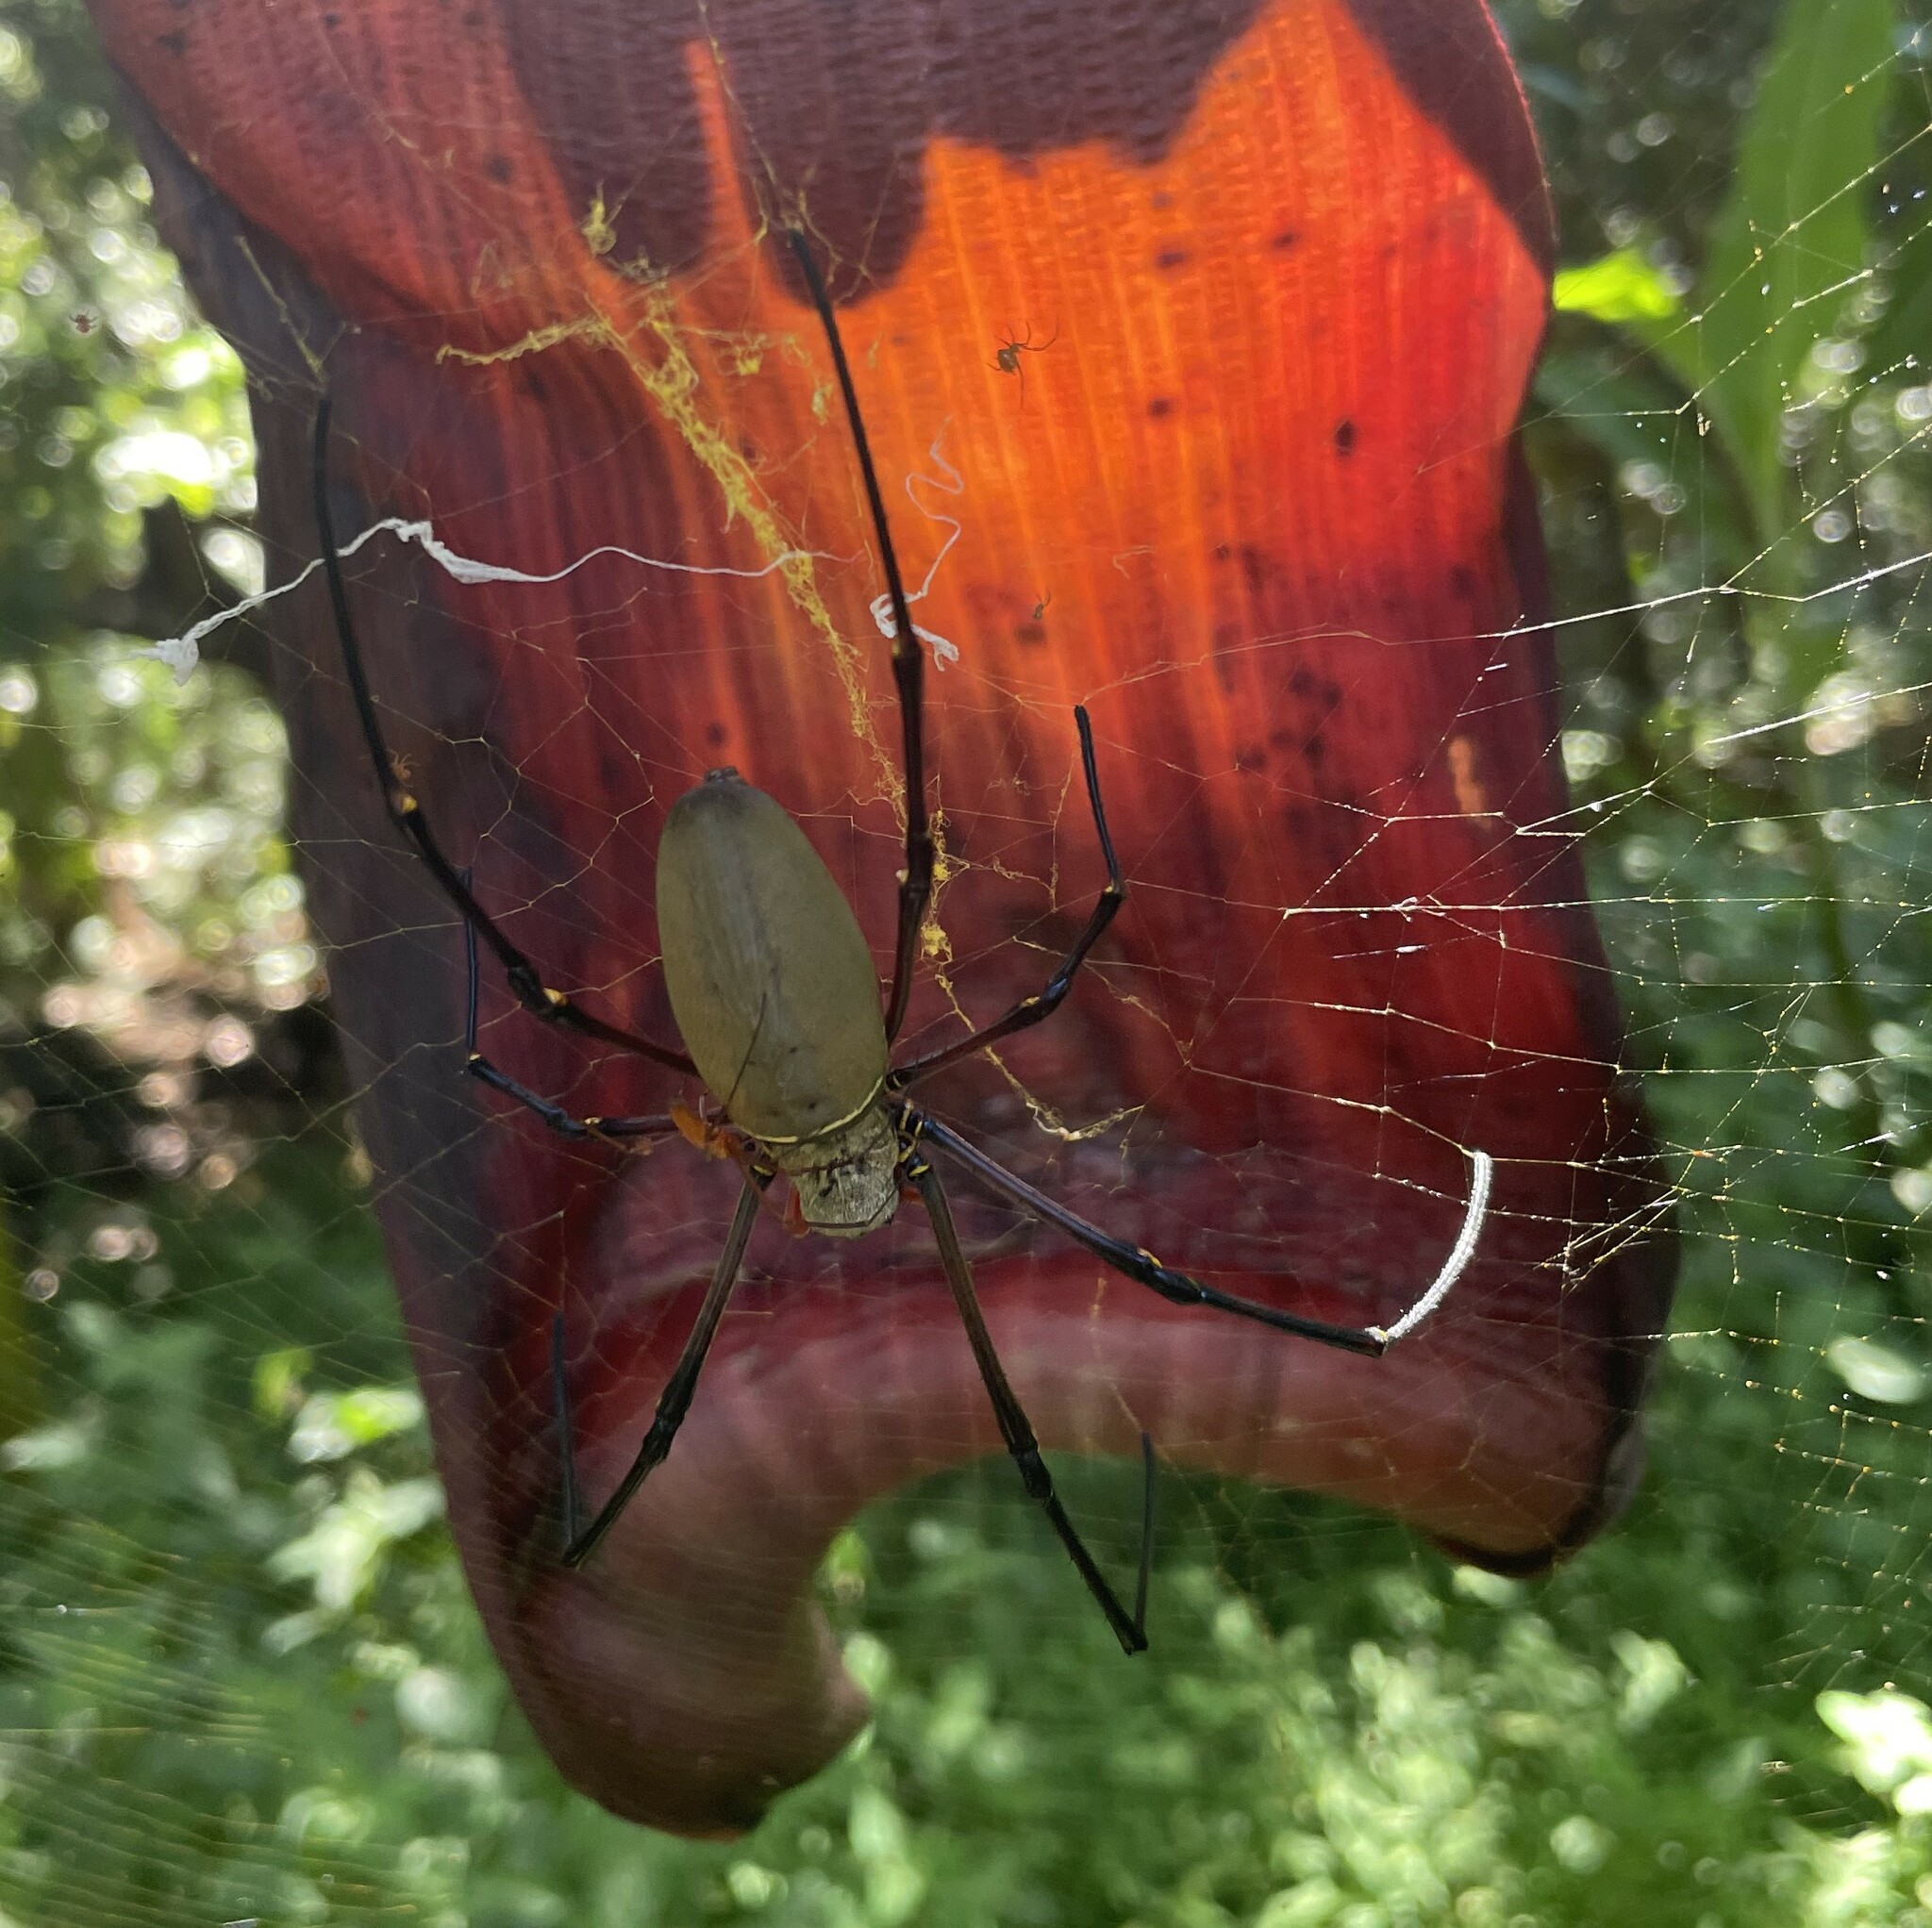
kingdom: Animalia
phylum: Arthropoda
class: Arachnida
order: Araneae
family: Araneidae
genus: Nephila
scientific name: Nephila pilipes
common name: Giant golden orb weaver
